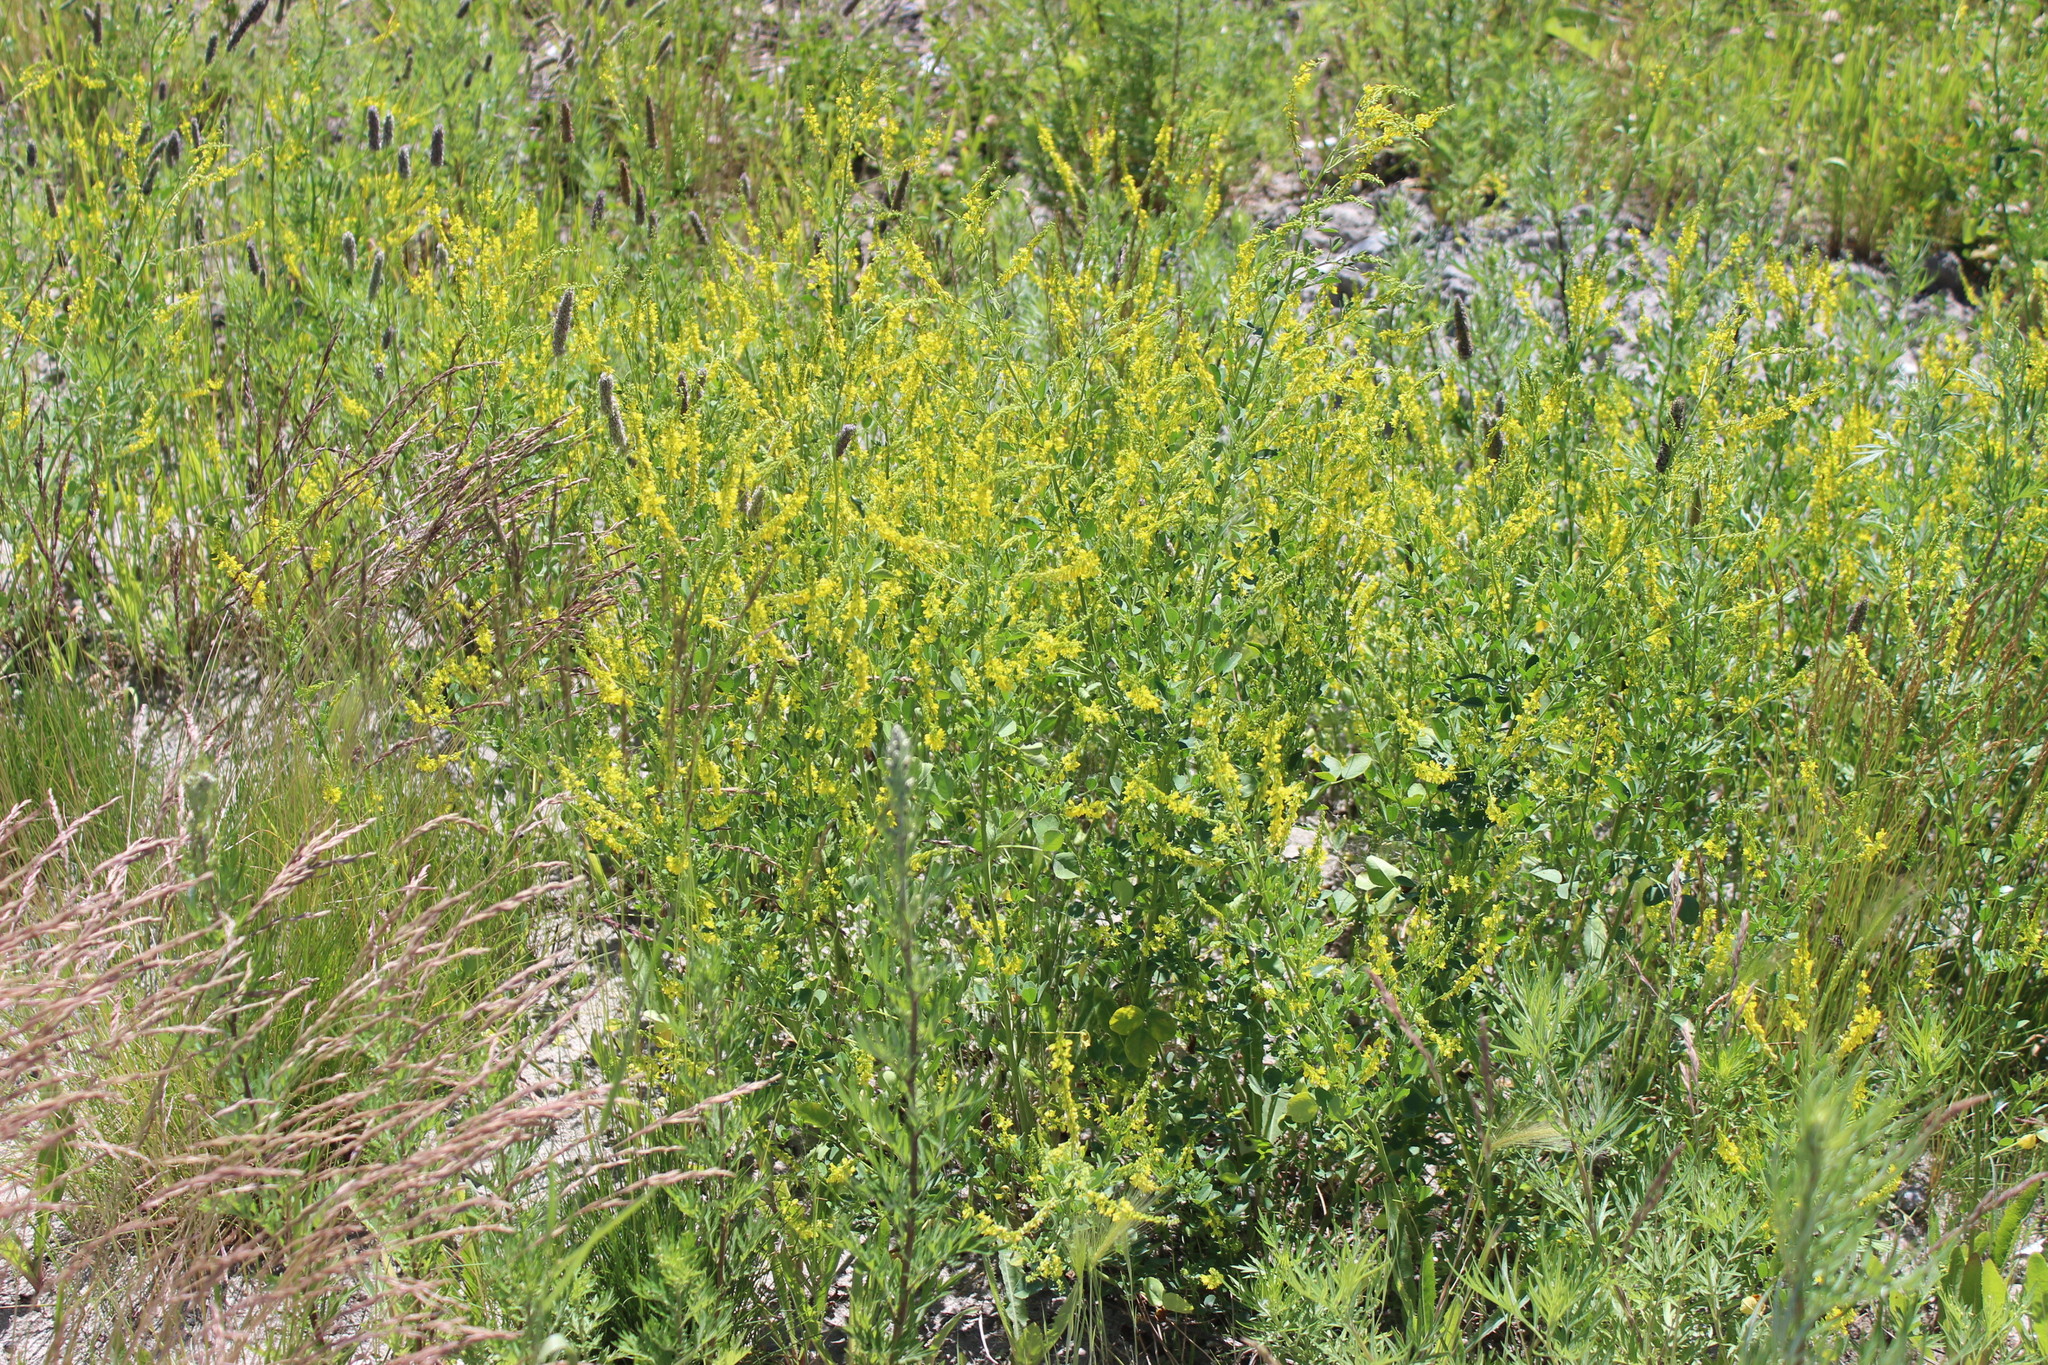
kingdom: Plantae
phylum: Tracheophyta
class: Magnoliopsida
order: Fabales
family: Fabaceae
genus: Melilotus
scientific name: Melilotus officinalis
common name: Sweetclover
